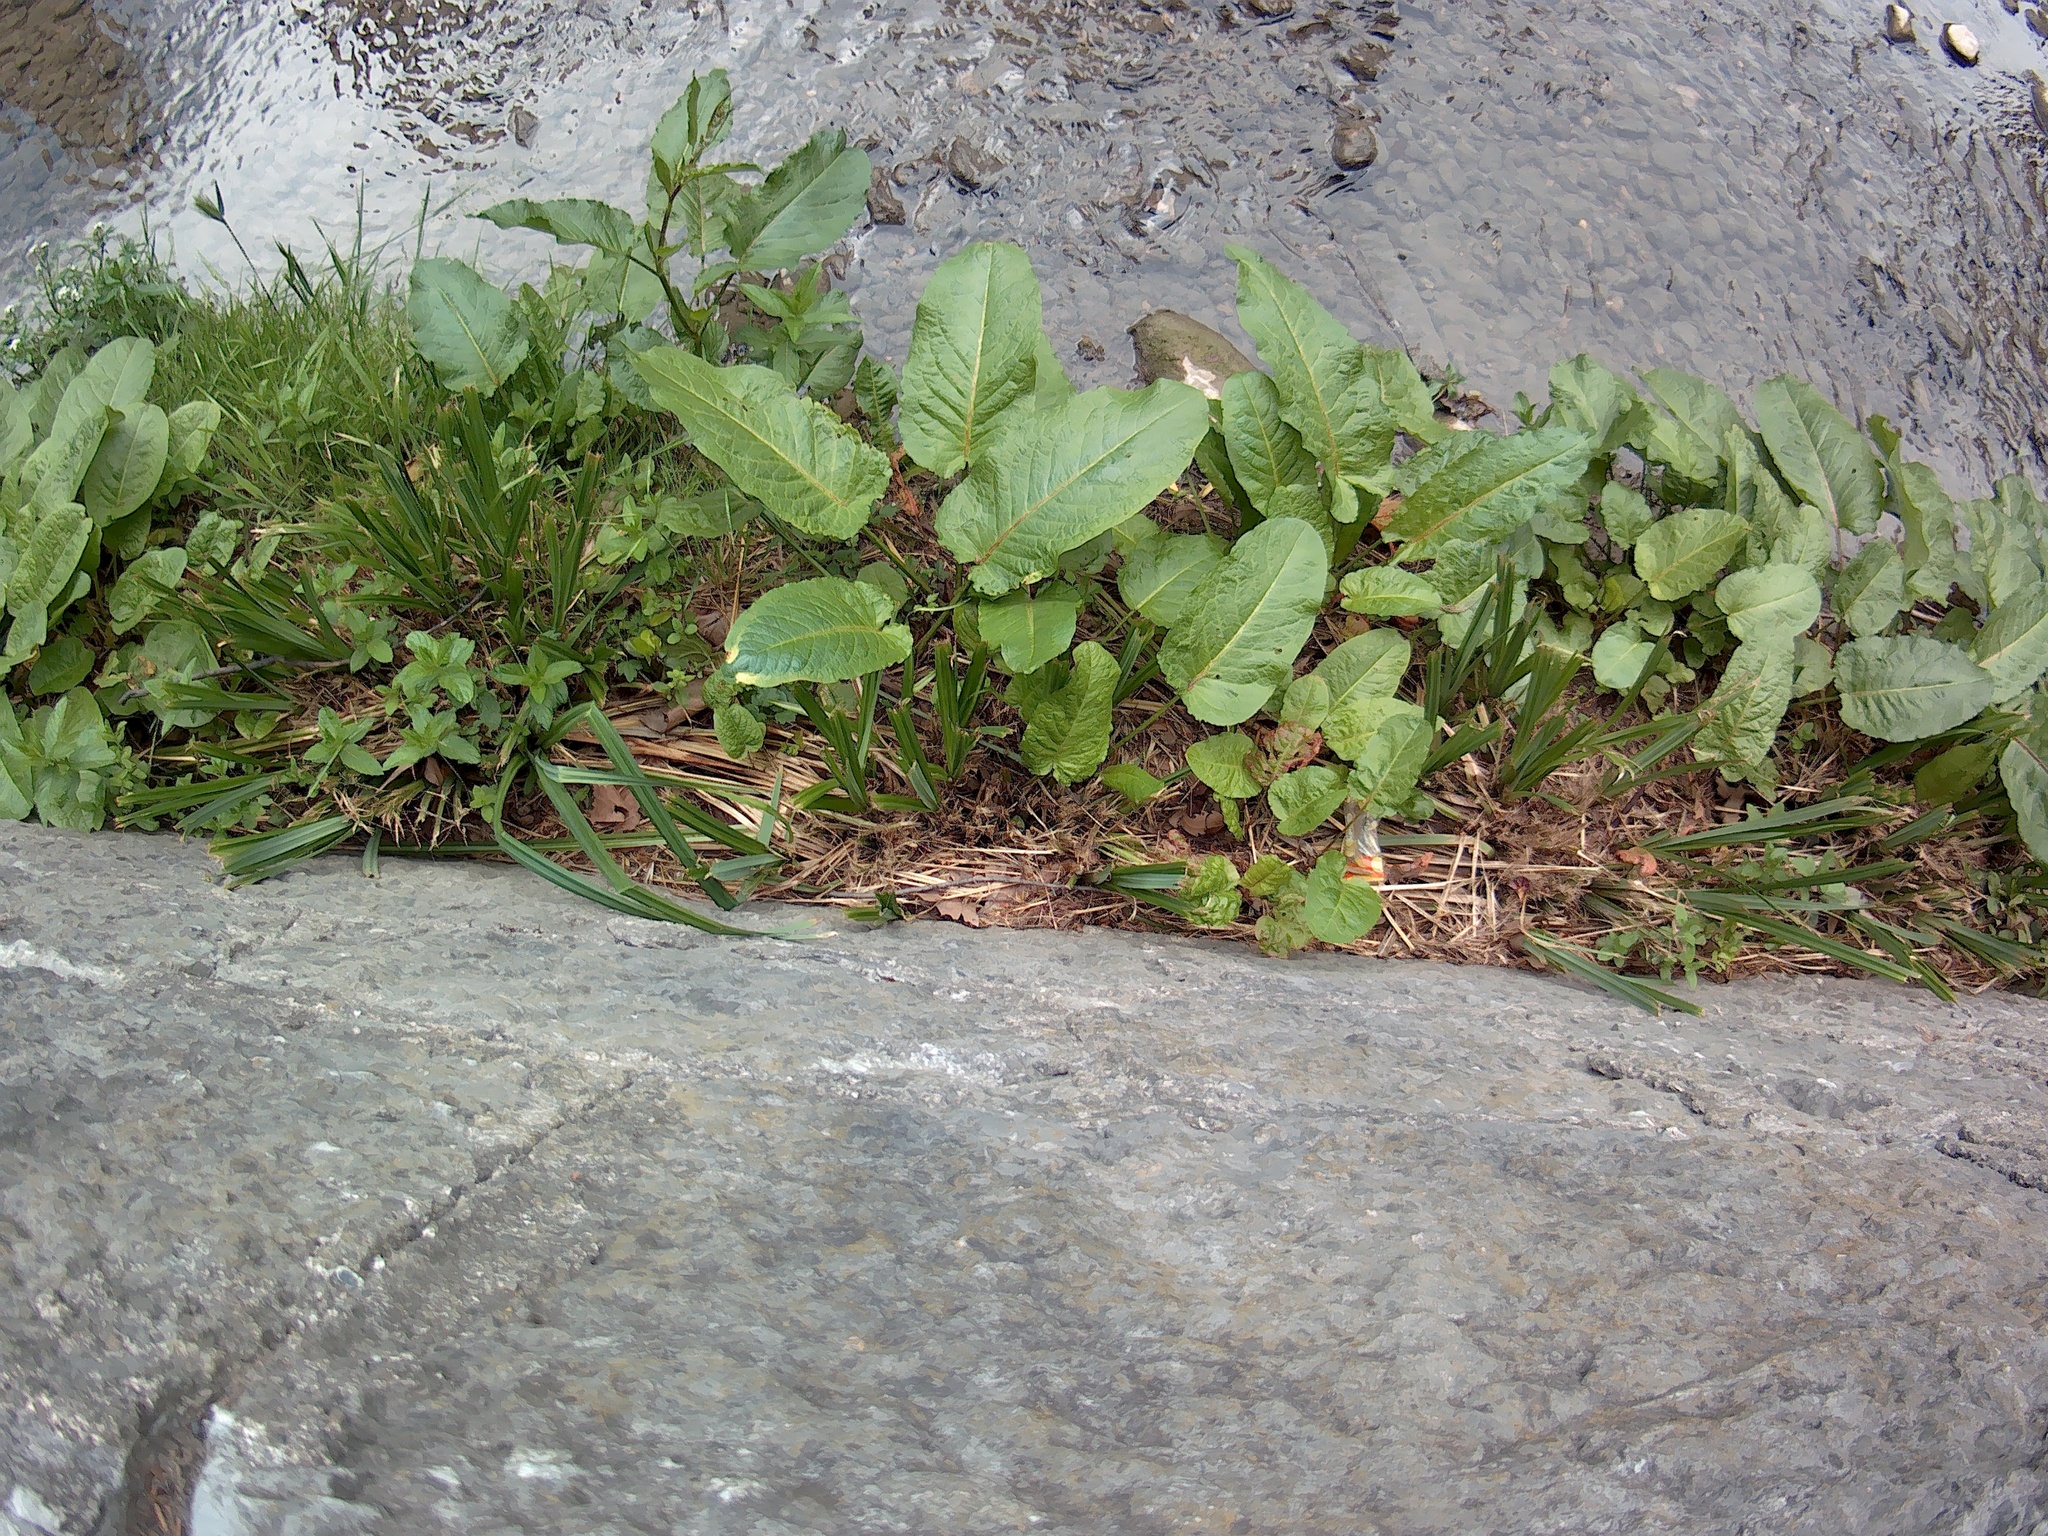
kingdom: Plantae
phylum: Tracheophyta
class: Magnoliopsida
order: Caryophyllales
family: Polygonaceae
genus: Rumex
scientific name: Rumex obtusifolius
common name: Bitter dock
